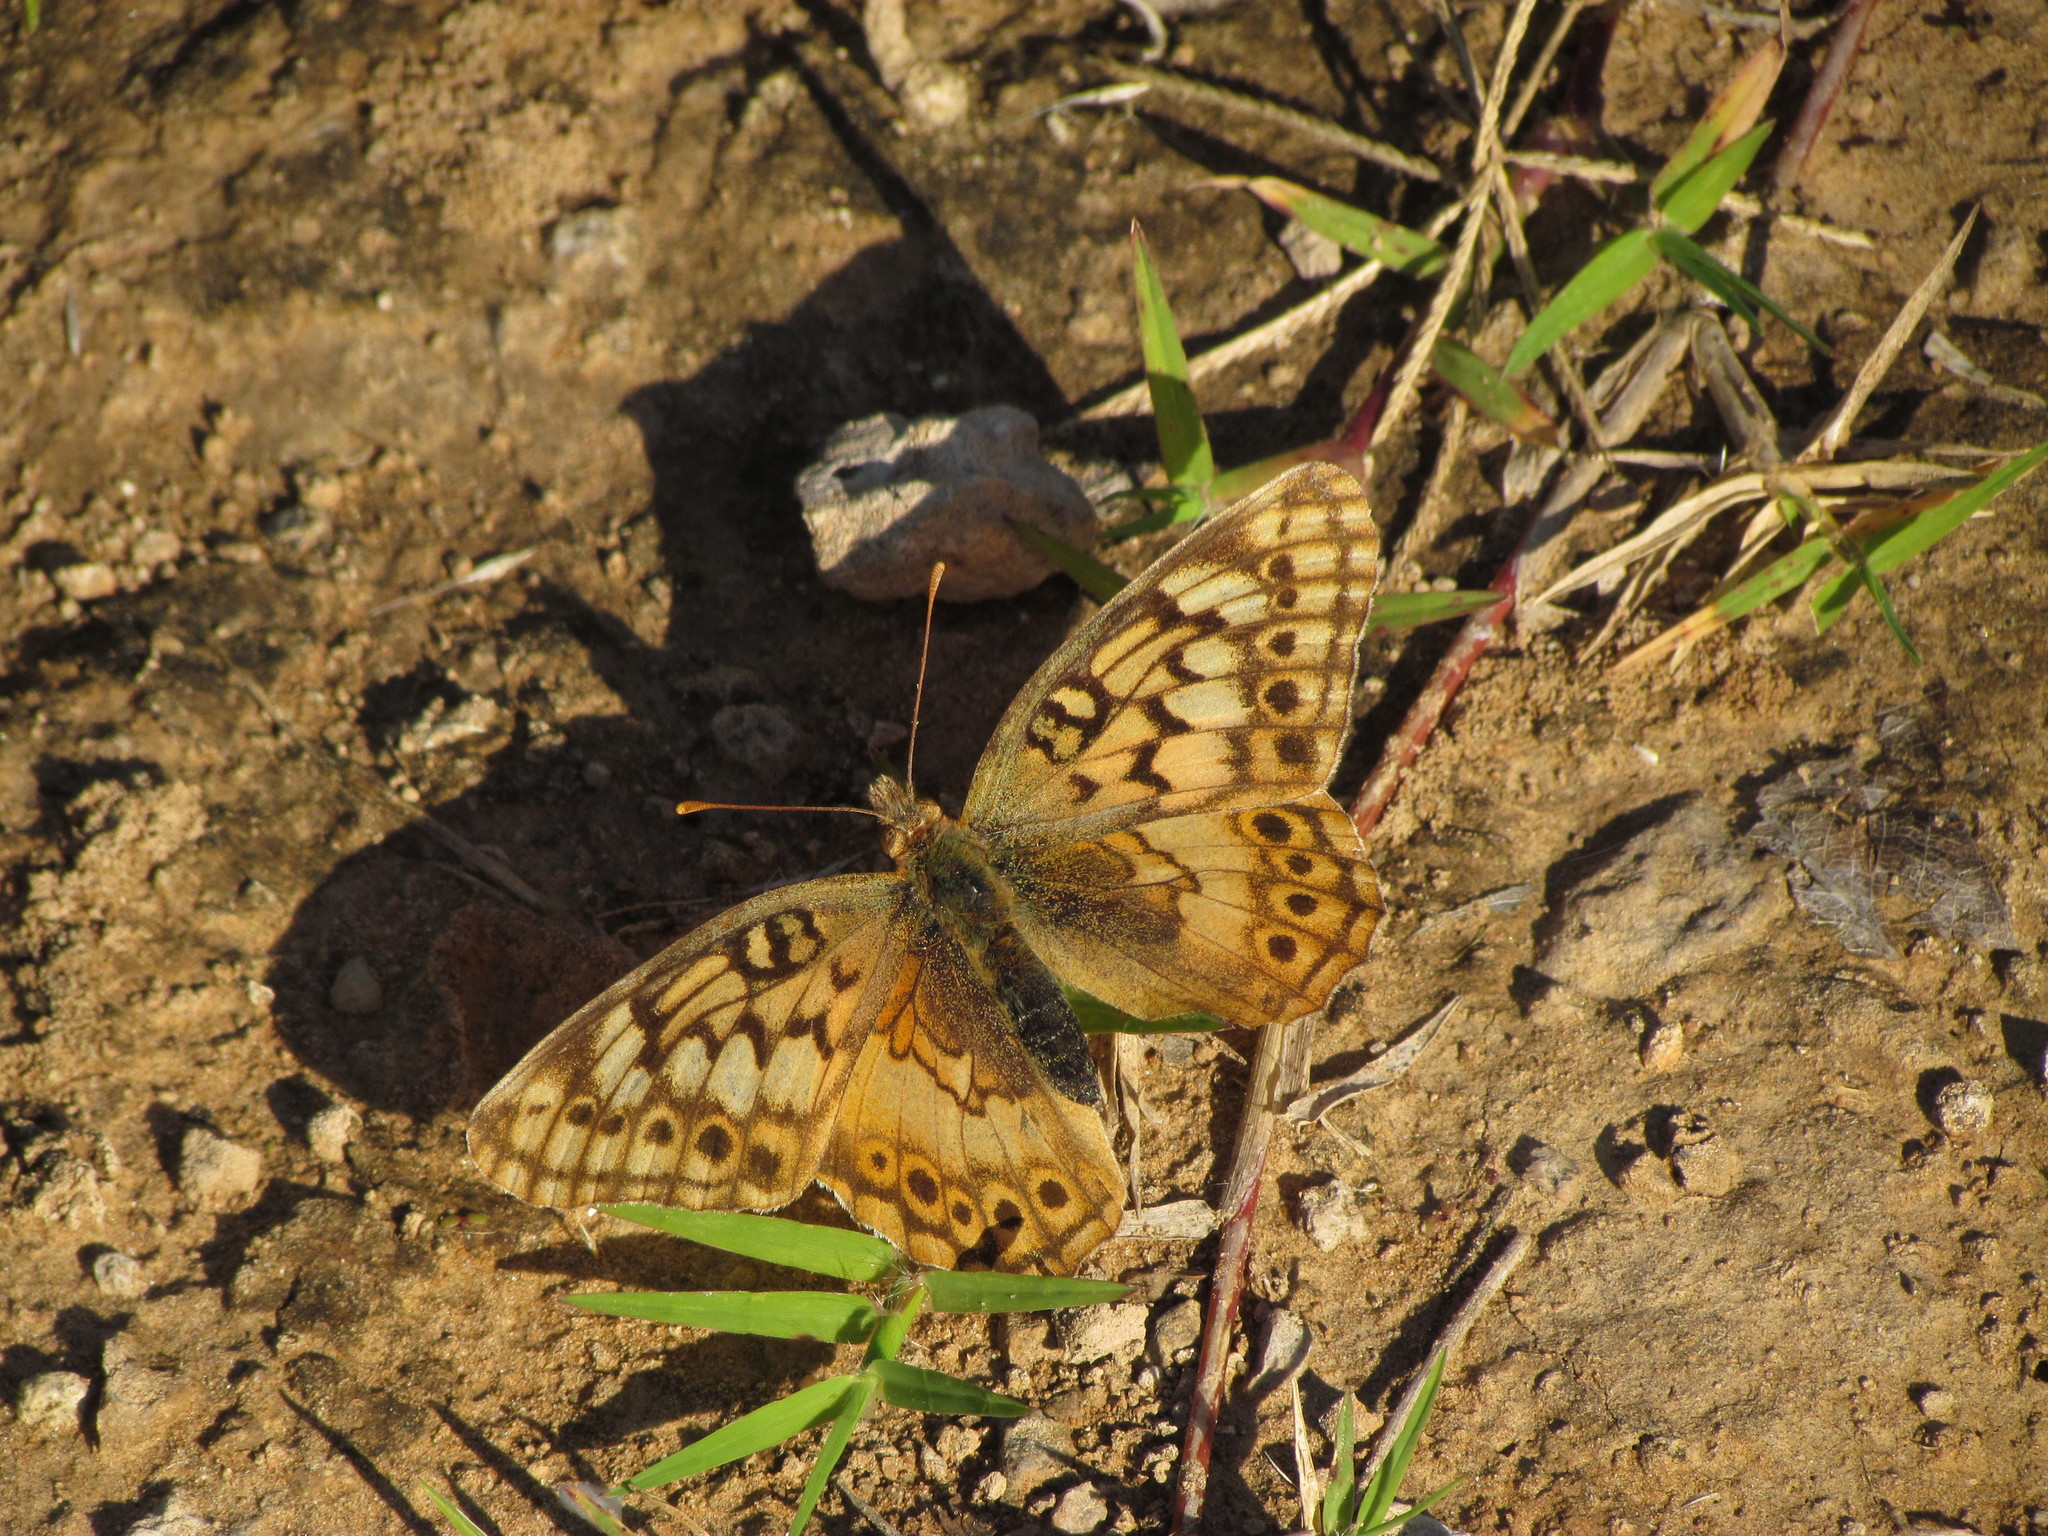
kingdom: Animalia
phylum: Arthropoda
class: Insecta
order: Lepidoptera
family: Nymphalidae
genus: Euptoieta
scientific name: Euptoieta hortensia
